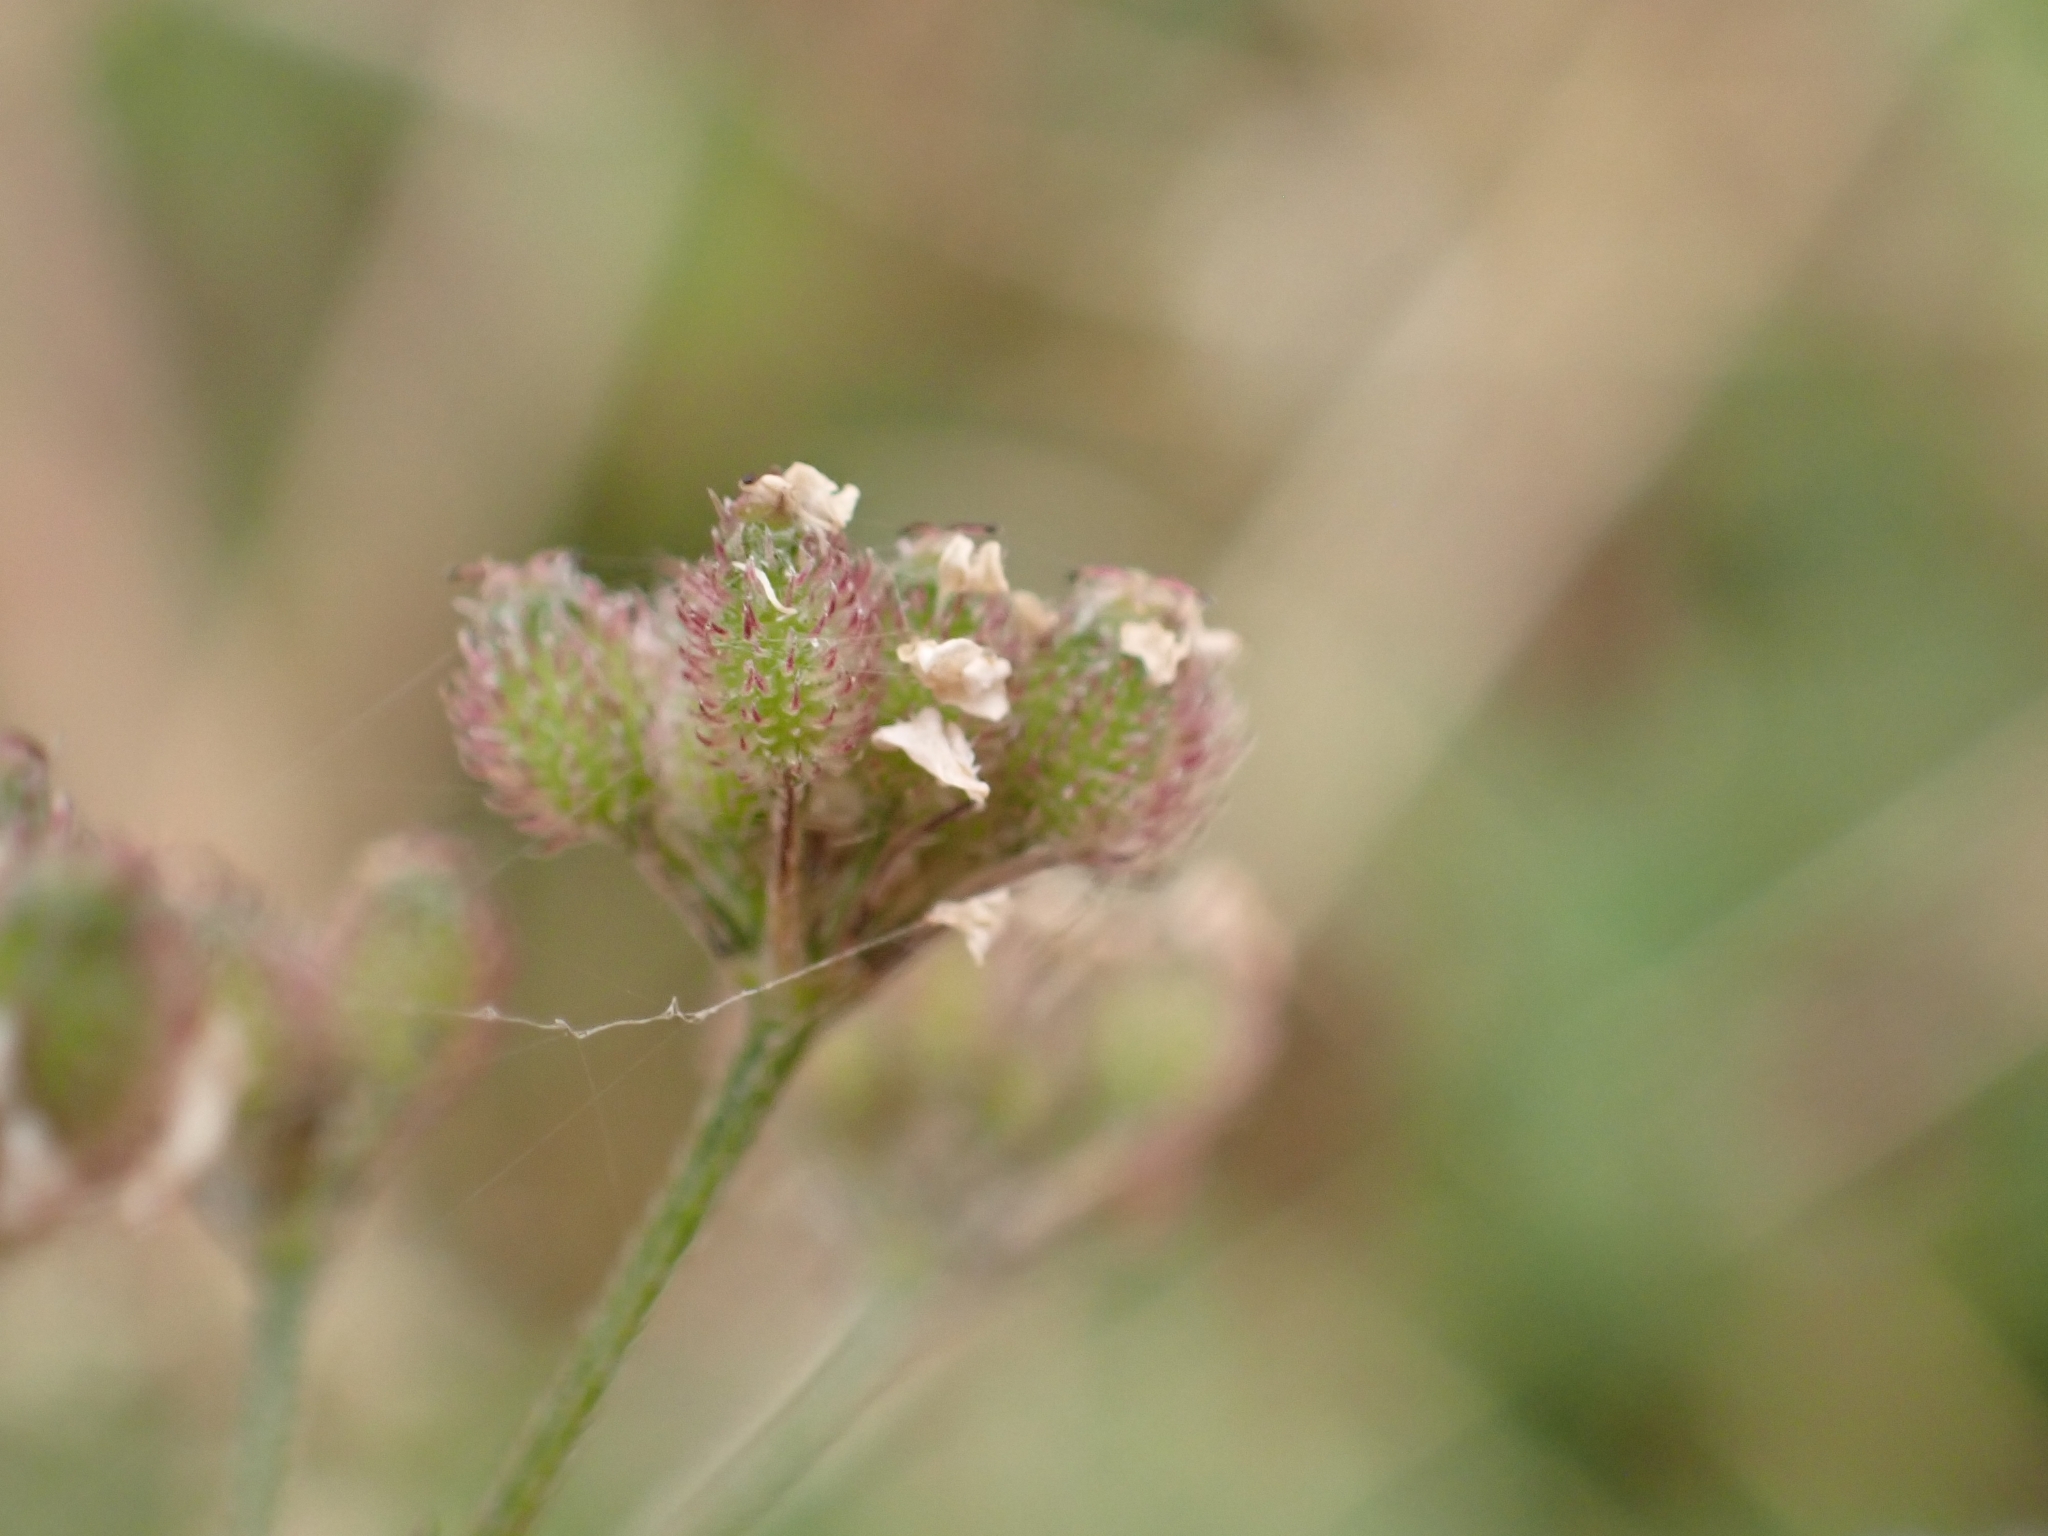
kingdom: Plantae
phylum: Tracheophyta
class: Magnoliopsida
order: Apiales
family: Apiaceae
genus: Torilis
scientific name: Torilis japonica
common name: Upright hedge-parsley
